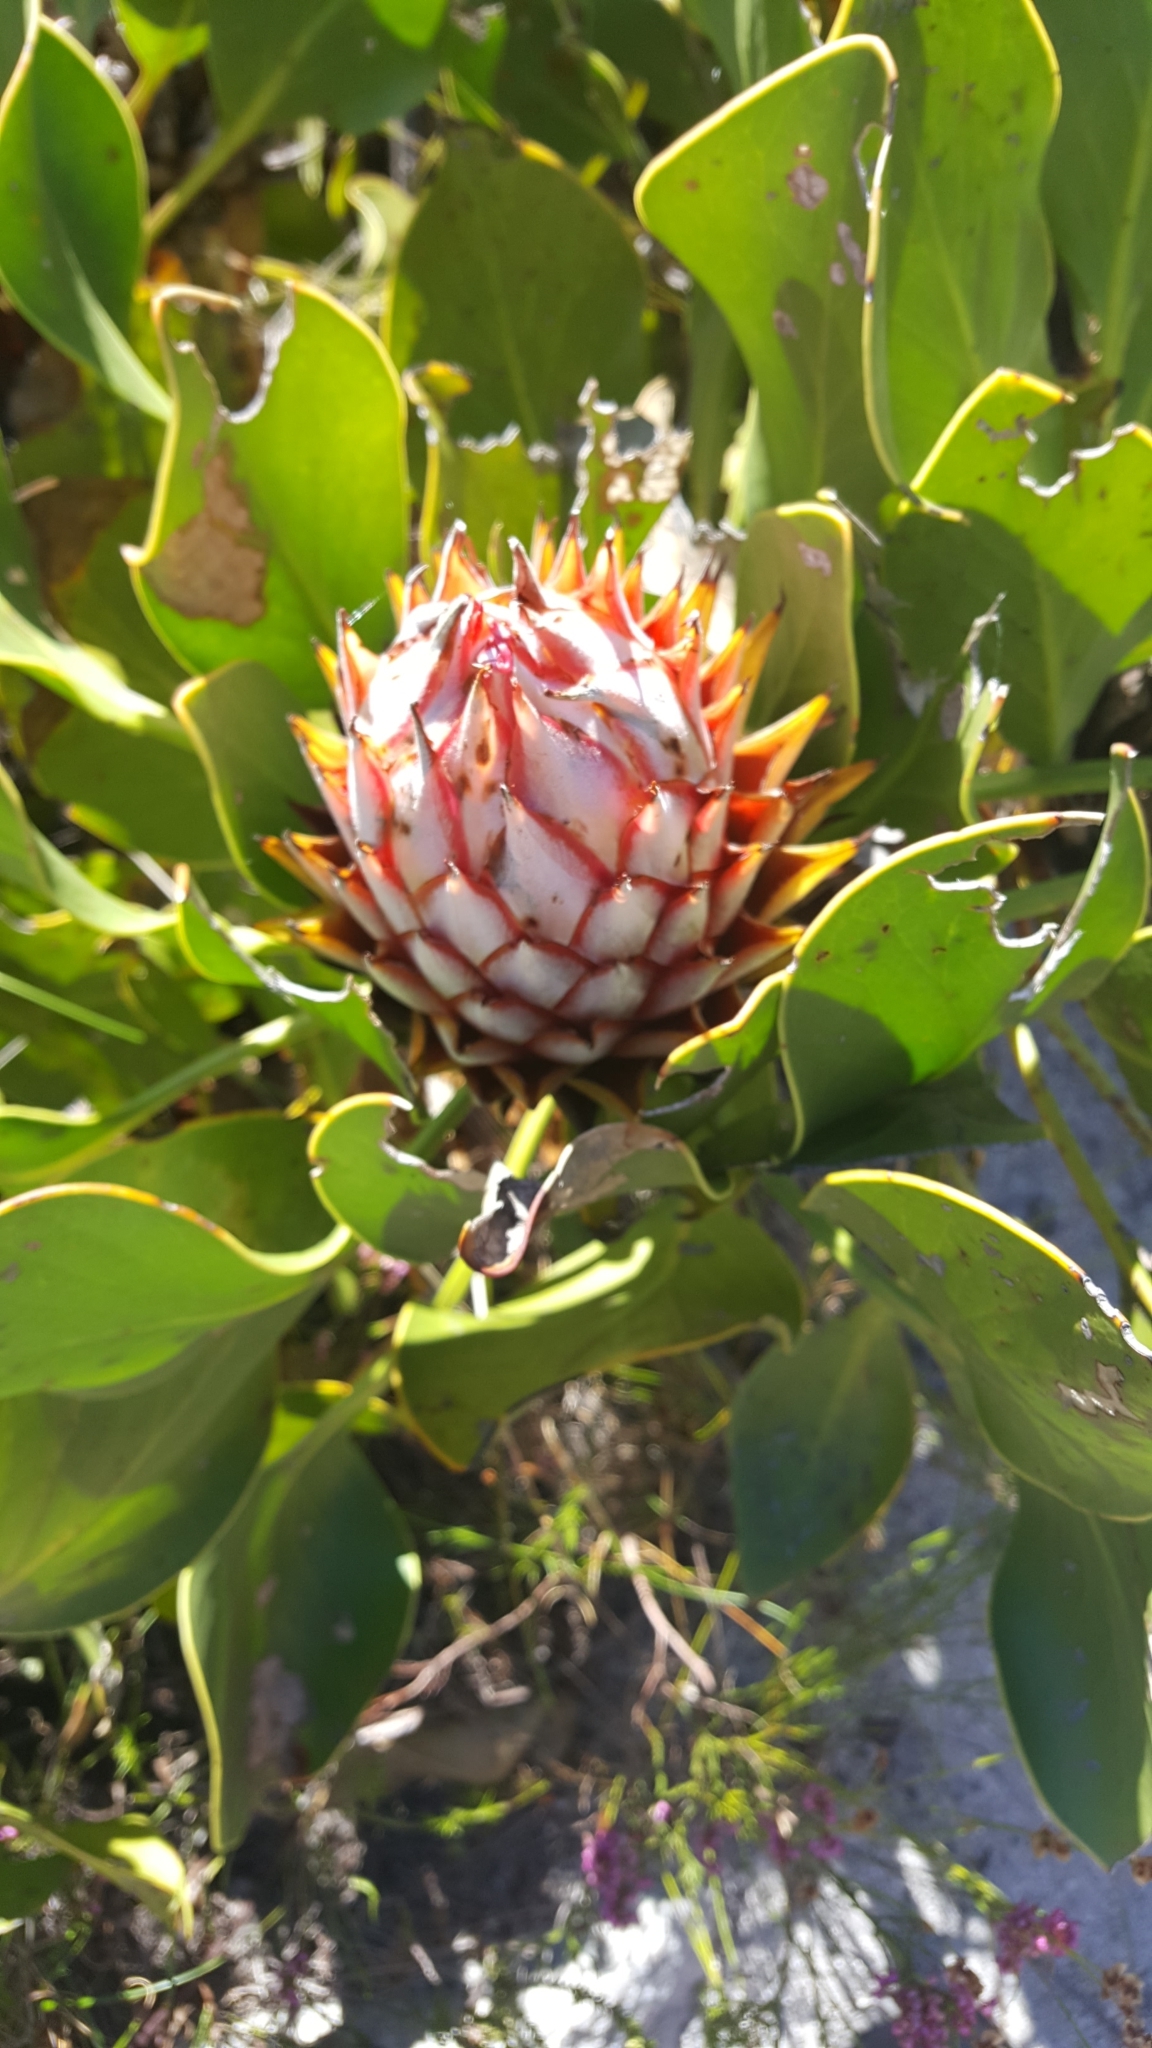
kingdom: Plantae
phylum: Tracheophyta
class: Magnoliopsida
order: Proteales
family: Proteaceae
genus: Protea
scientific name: Protea cynaroides
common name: King protea
